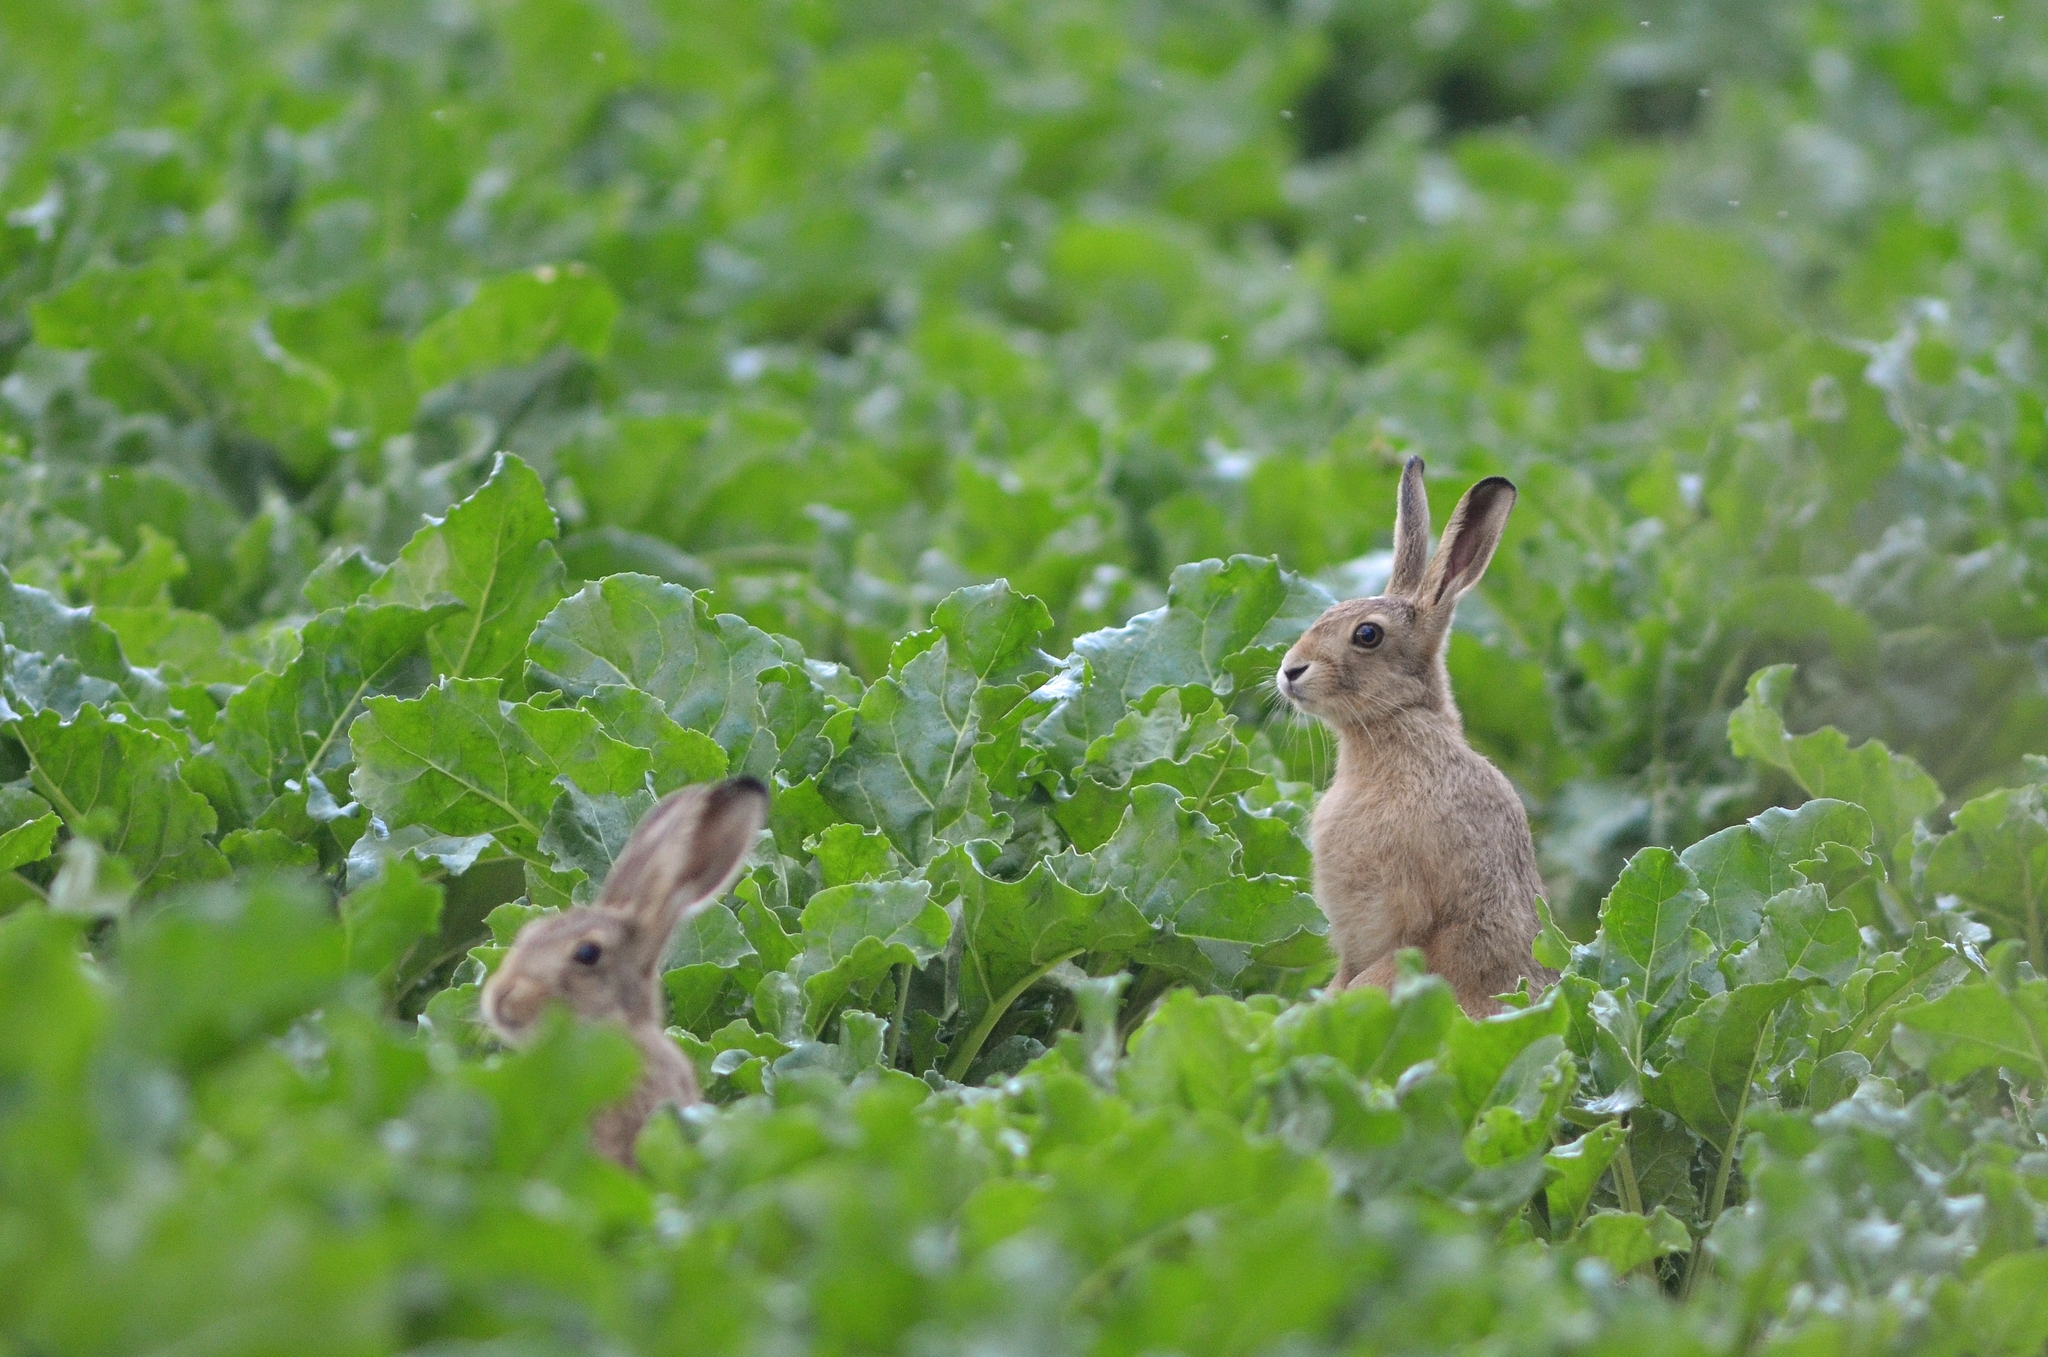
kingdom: Animalia
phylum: Chordata
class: Mammalia
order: Lagomorpha
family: Leporidae
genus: Lepus
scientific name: Lepus europaeus
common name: European hare
